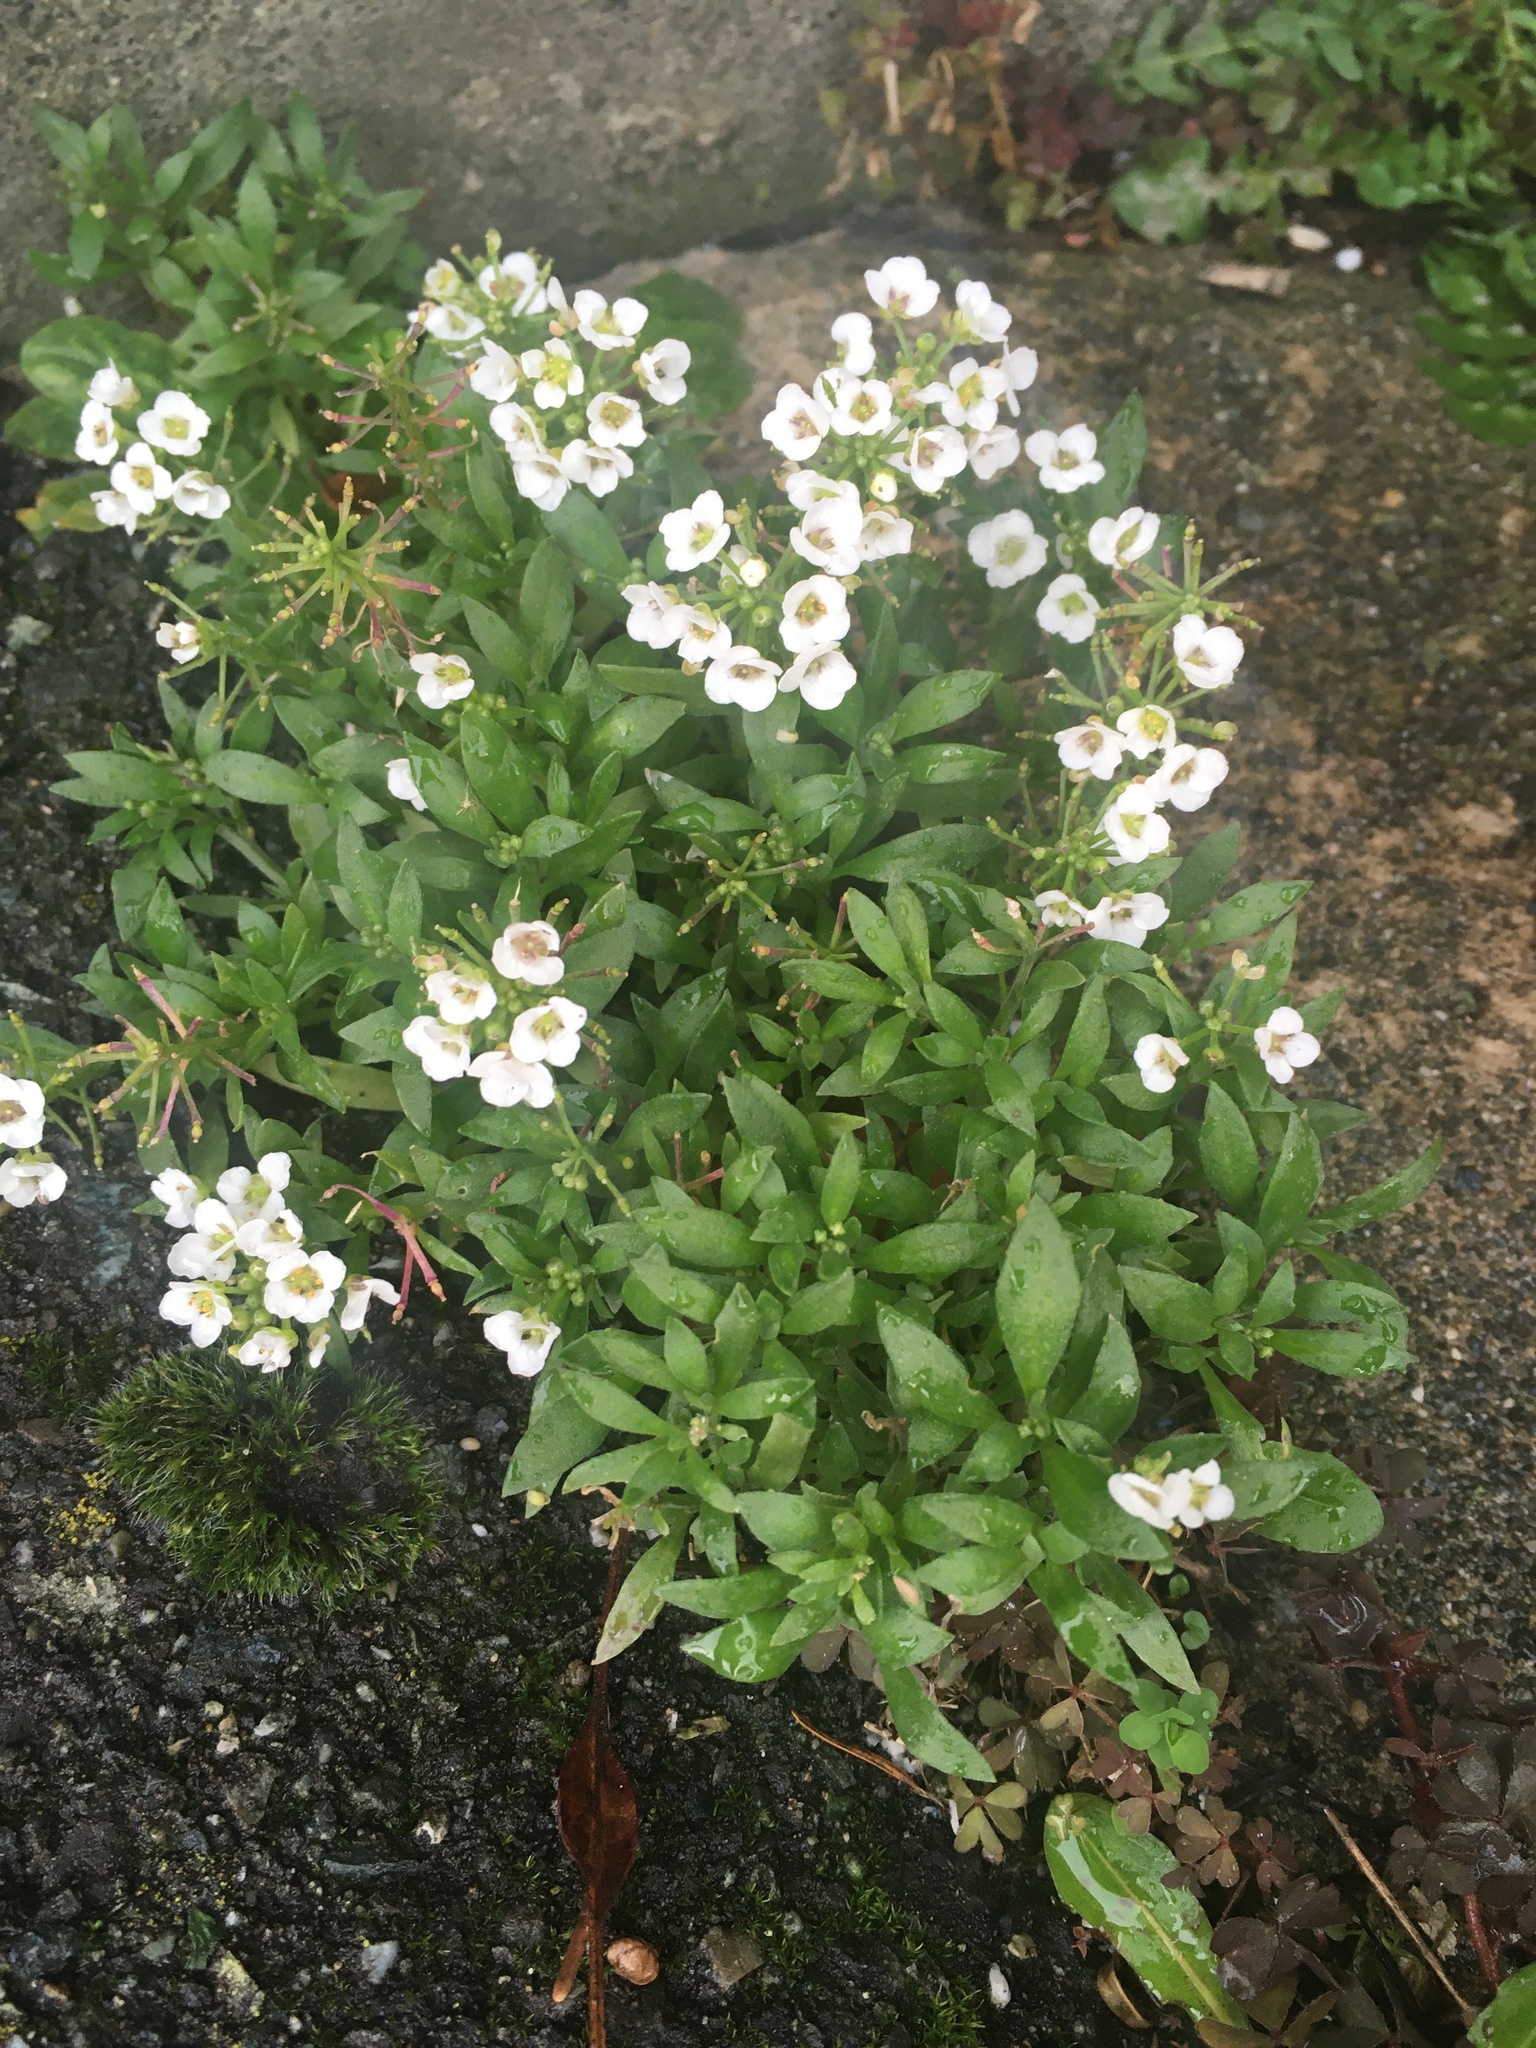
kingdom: Plantae
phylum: Tracheophyta
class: Magnoliopsida
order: Brassicales
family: Brassicaceae
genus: Lobularia
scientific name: Lobularia maritima
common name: Sweet alison
